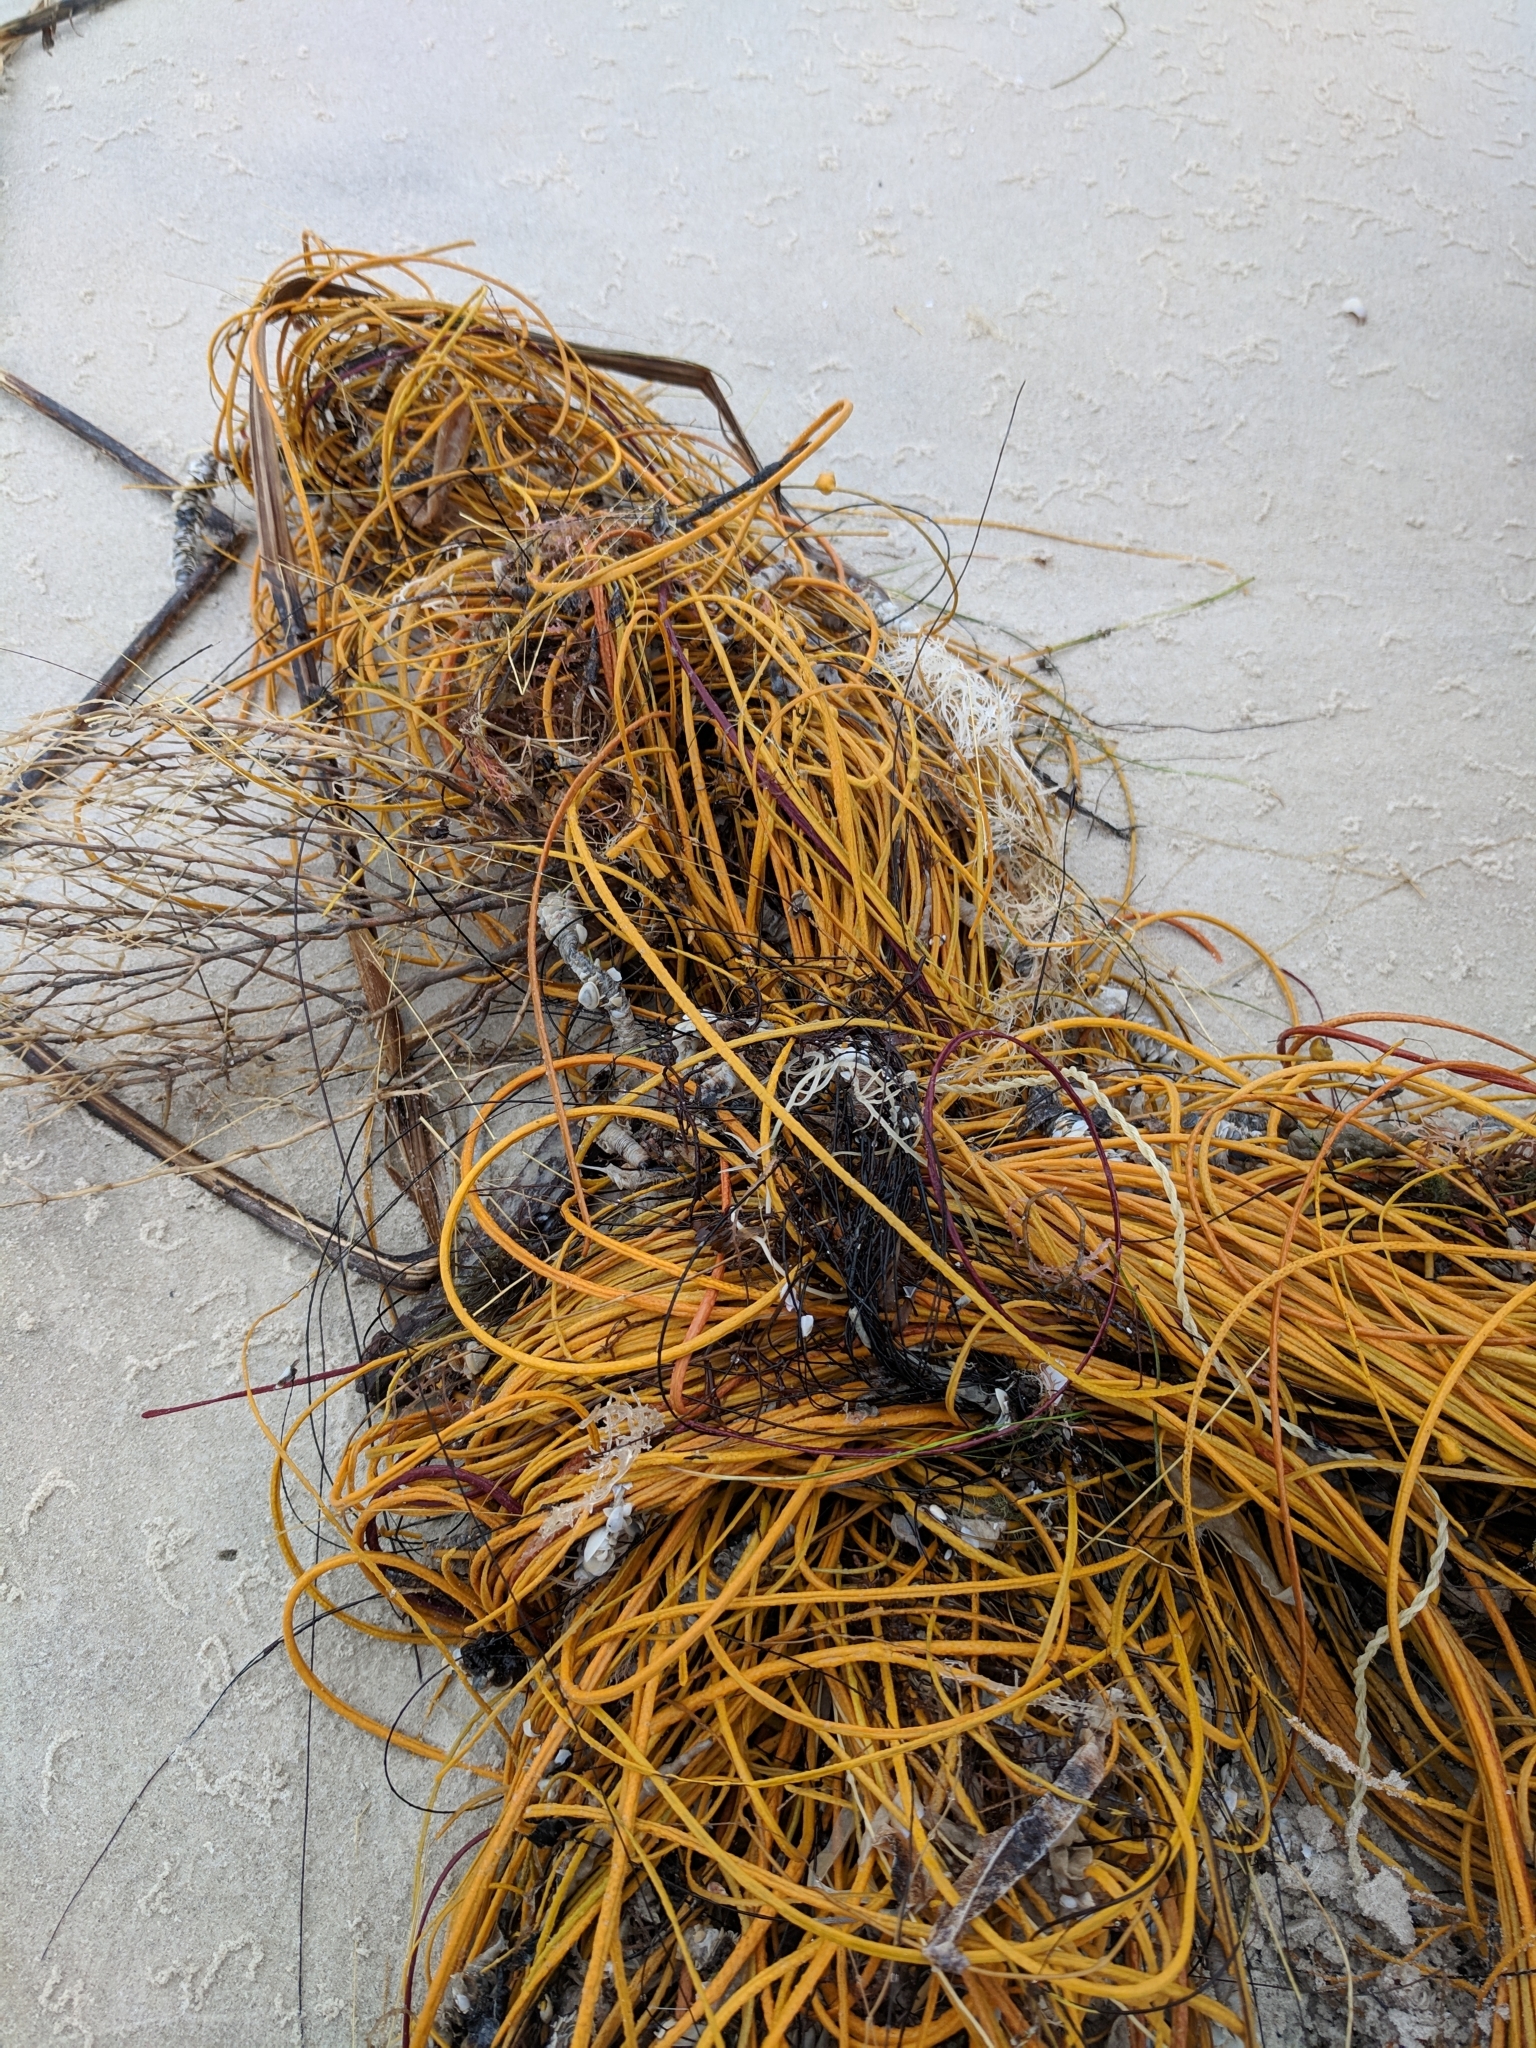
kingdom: Animalia
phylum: Cnidaria
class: Anthozoa
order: Malacalcyonacea
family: Gorgoniidae
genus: Leptogorgia
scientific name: Leptogorgia setacea
